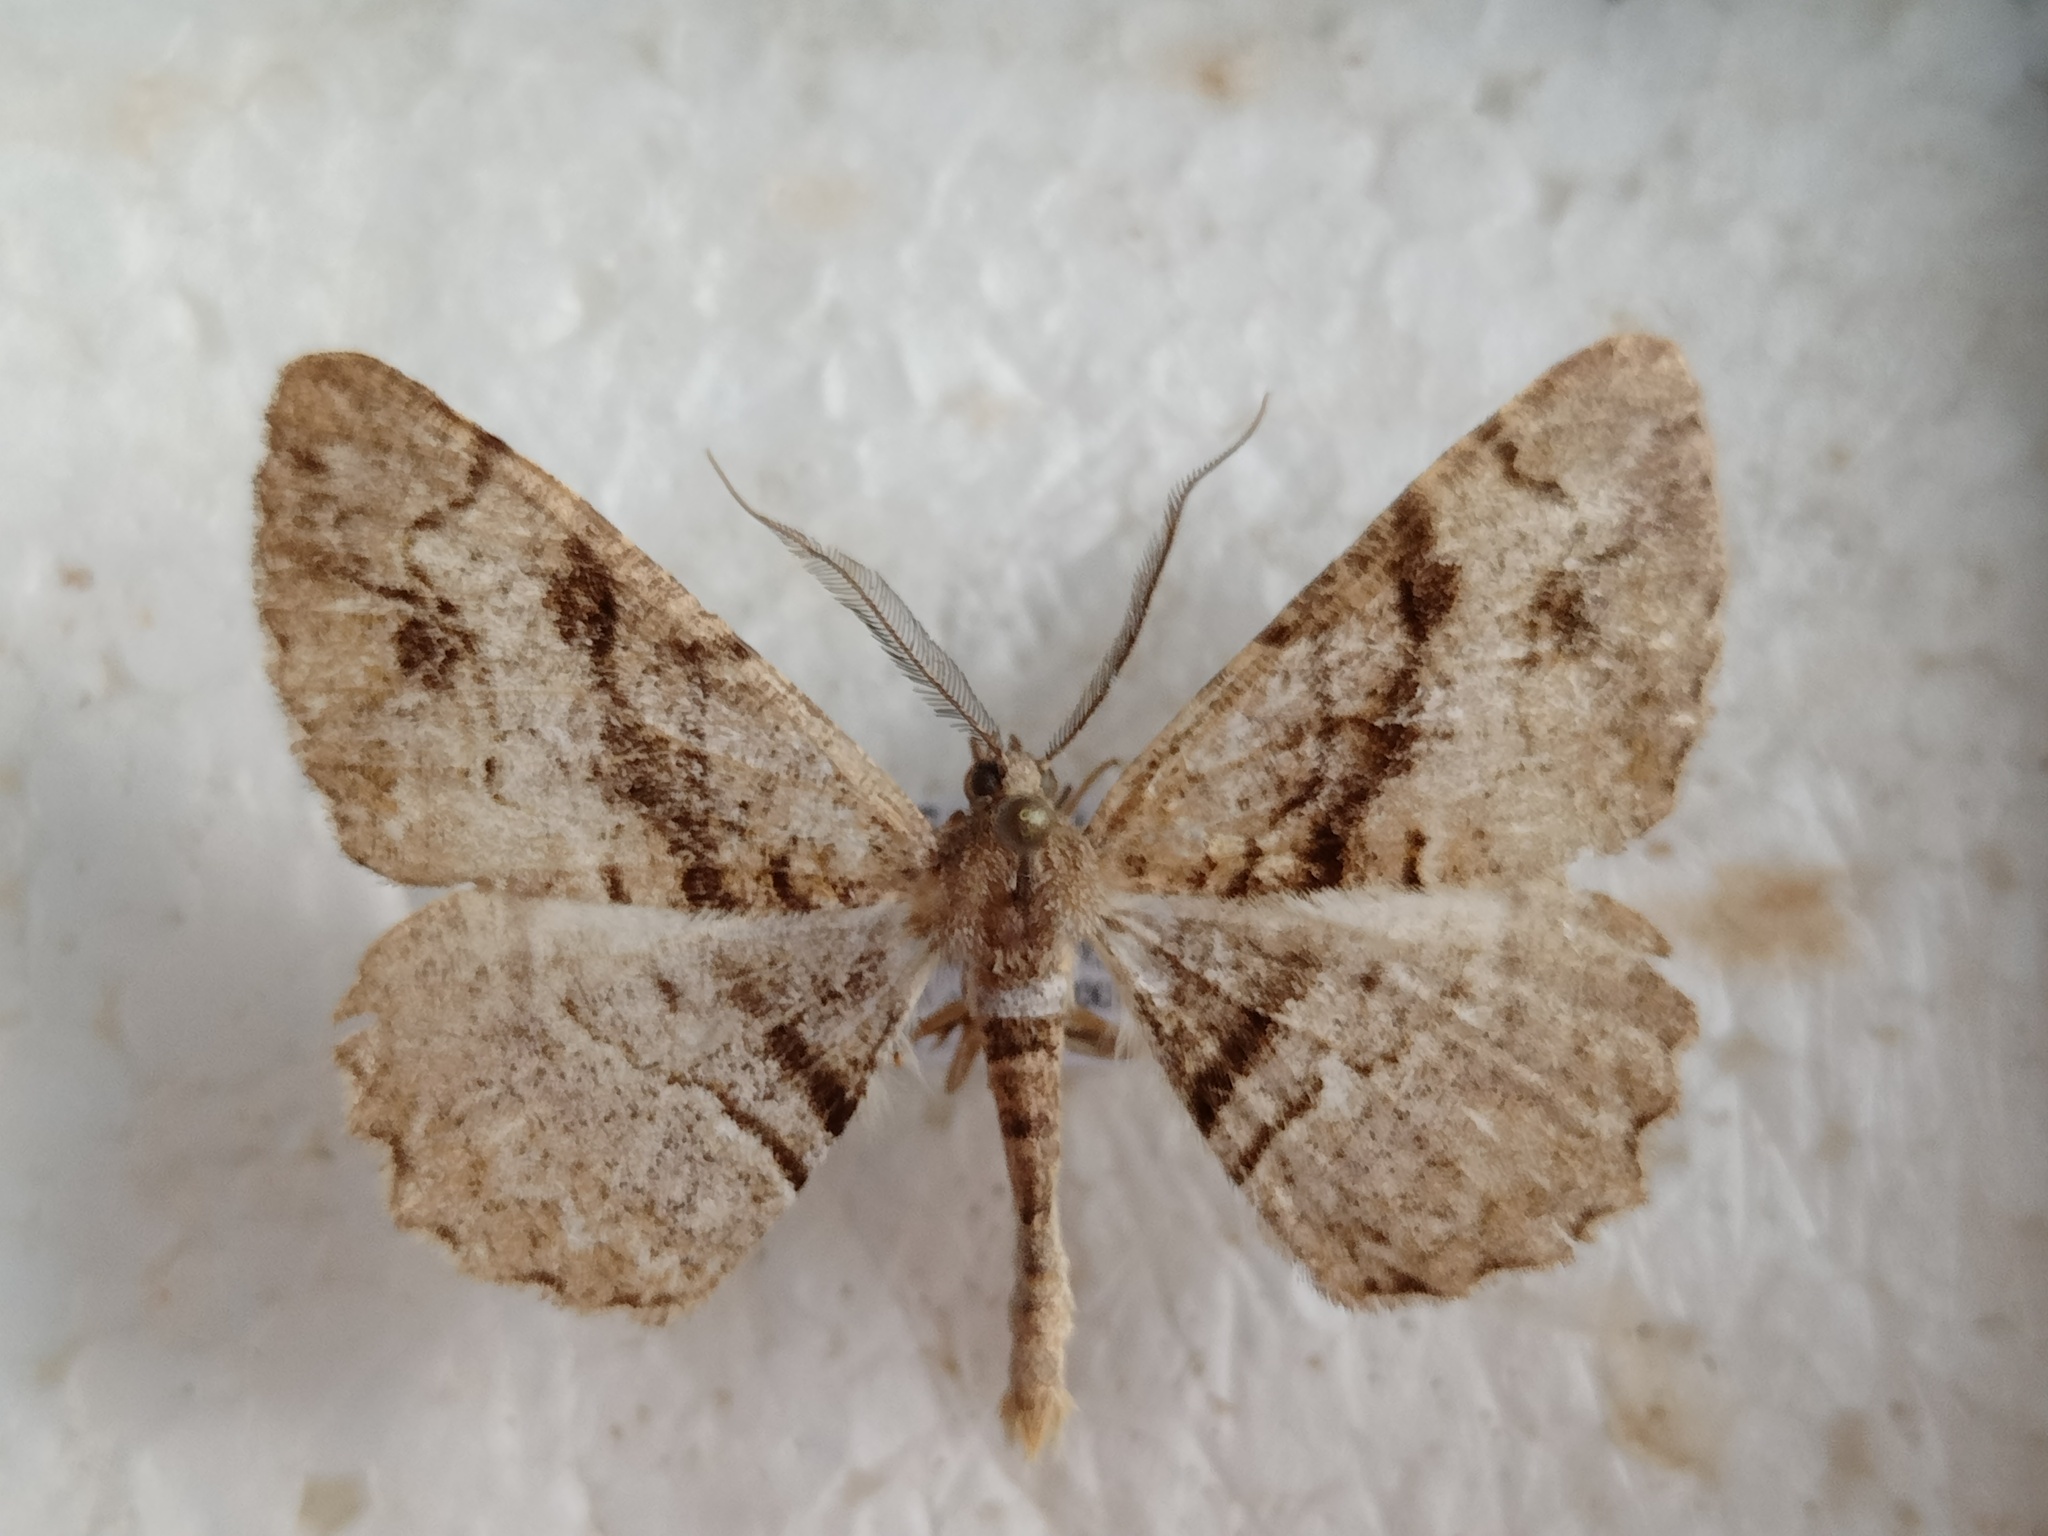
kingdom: Animalia
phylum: Arthropoda
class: Insecta
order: Lepidoptera
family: Geometridae
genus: Alcis
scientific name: Alcis deversata
